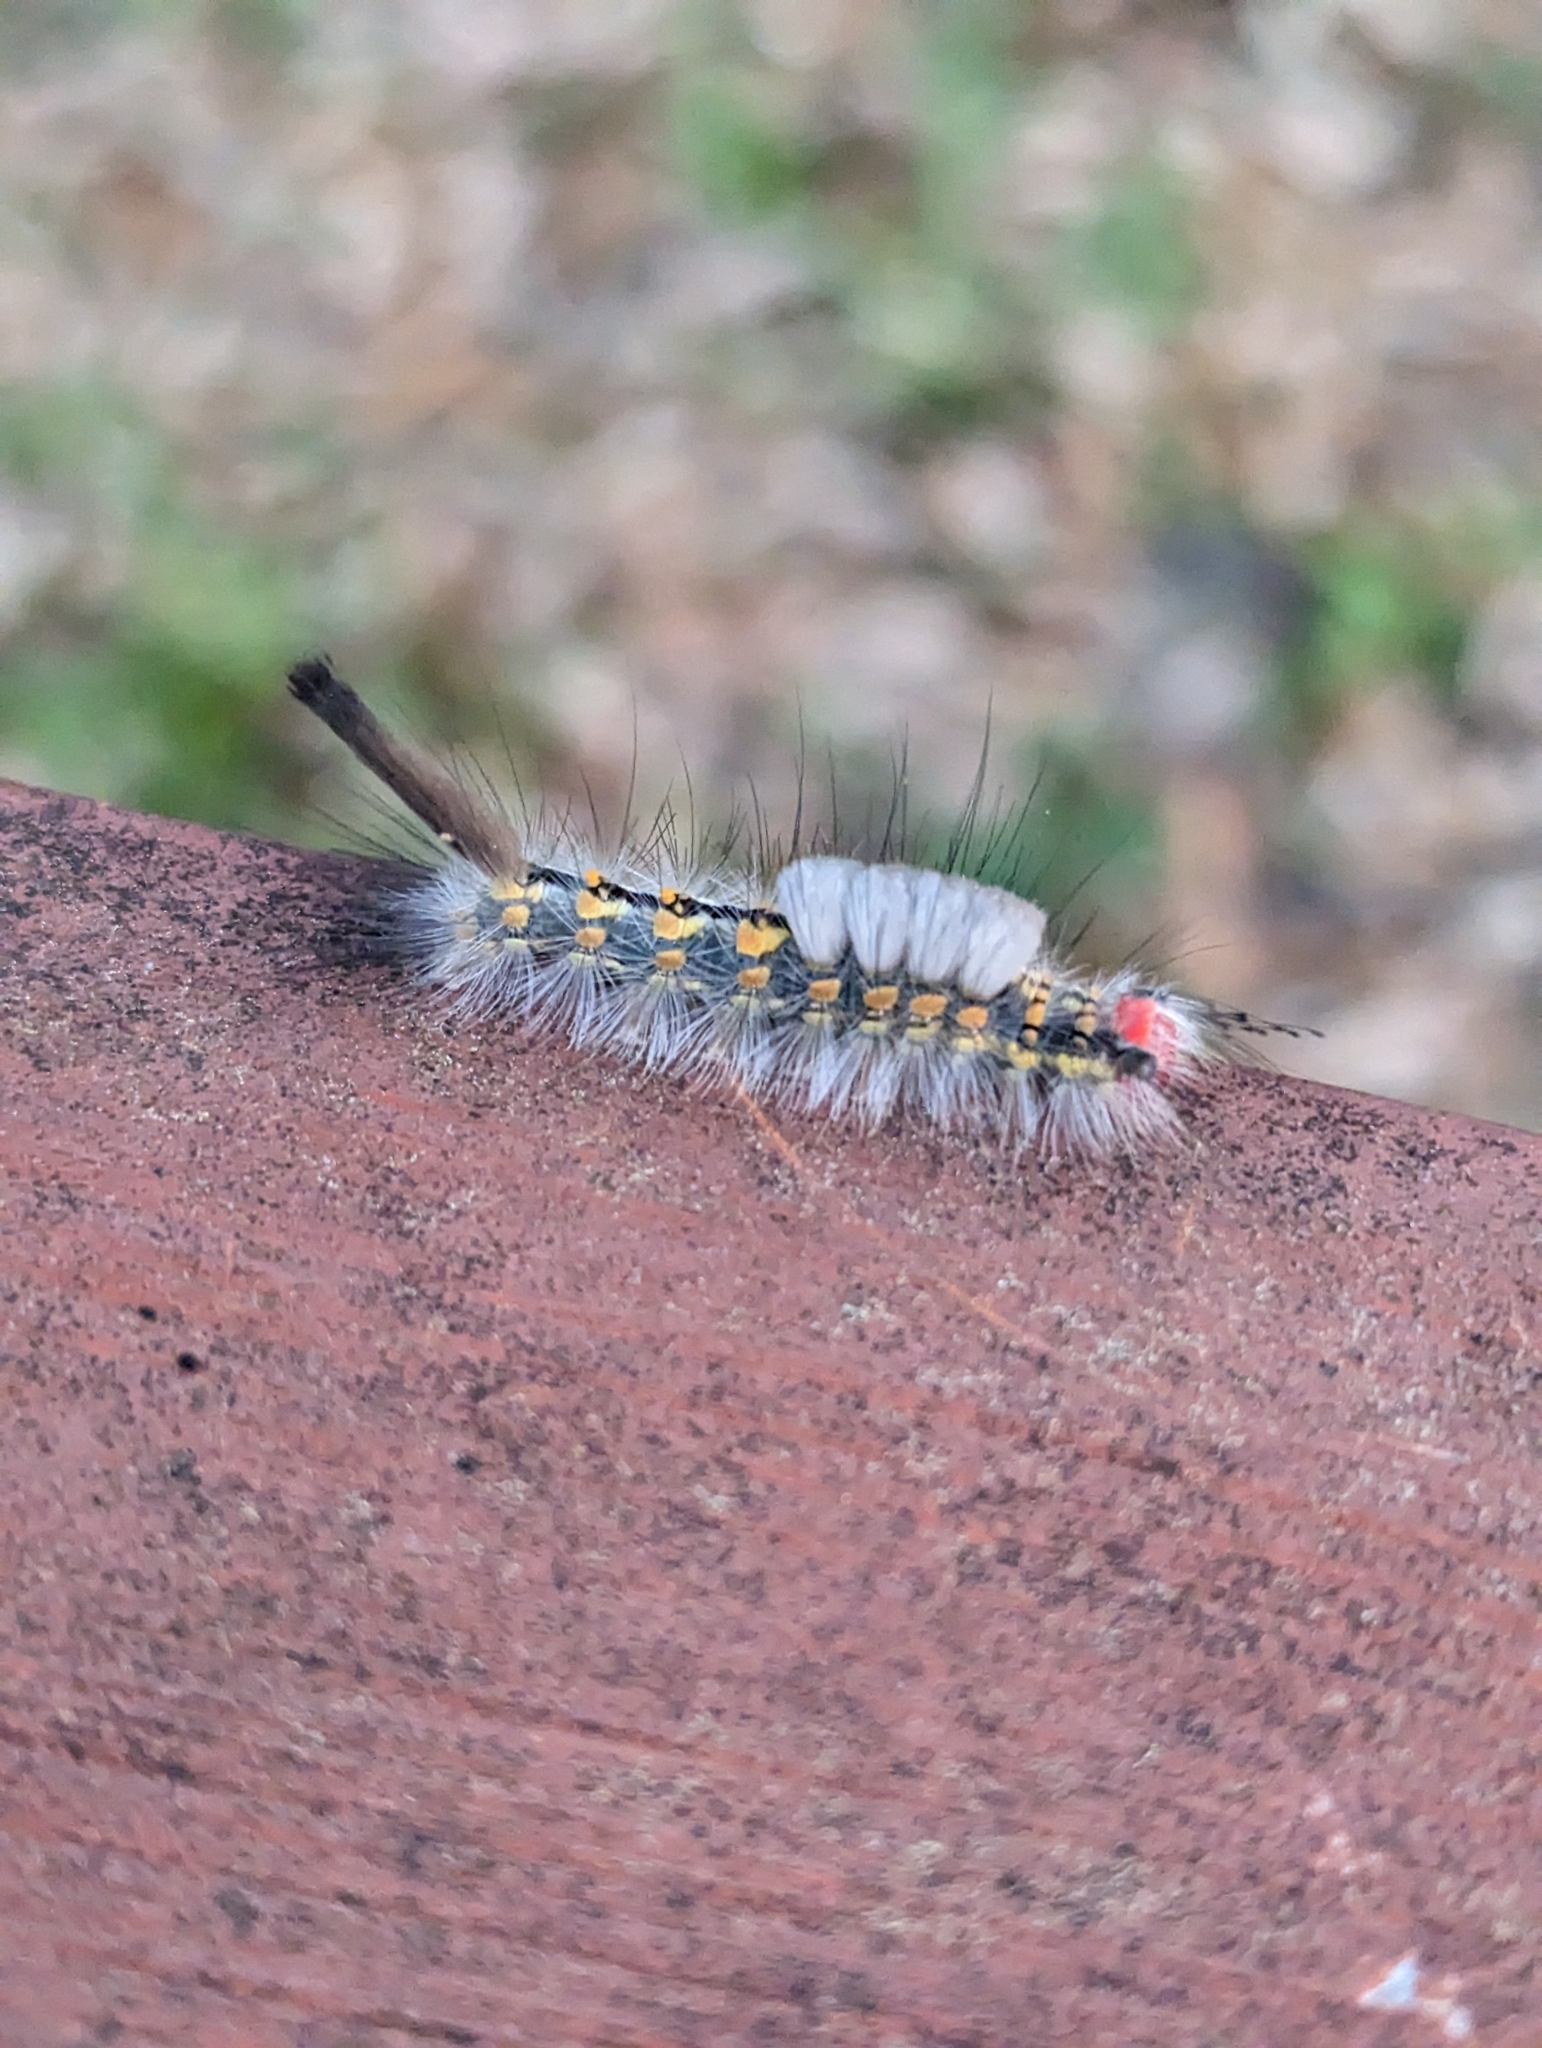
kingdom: Animalia
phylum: Arthropoda
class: Insecta
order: Lepidoptera
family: Erebidae
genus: Orgyia
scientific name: Orgyia detrita
